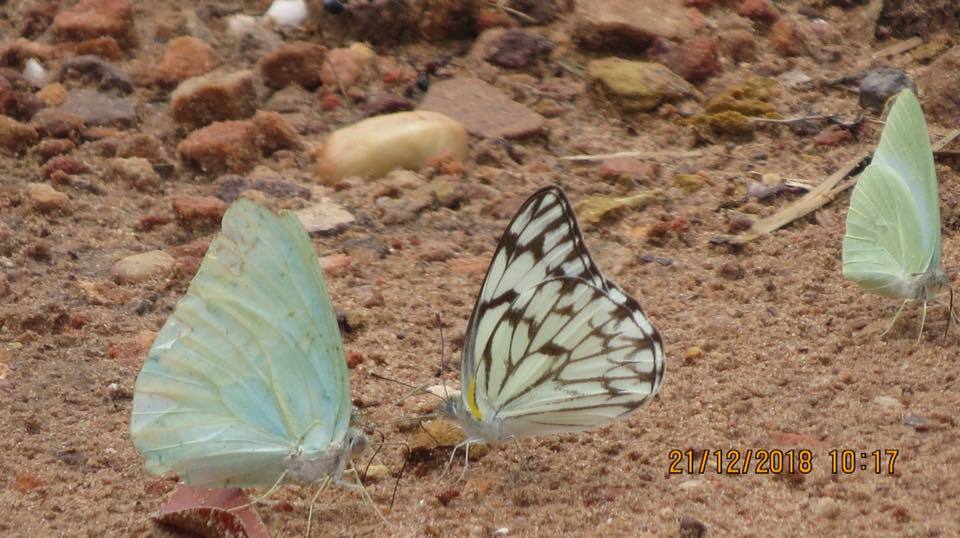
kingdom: Animalia
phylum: Arthropoda
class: Insecta
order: Lepidoptera
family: Pieridae
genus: Catopsilia
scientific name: Catopsilia florella
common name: African migrant
